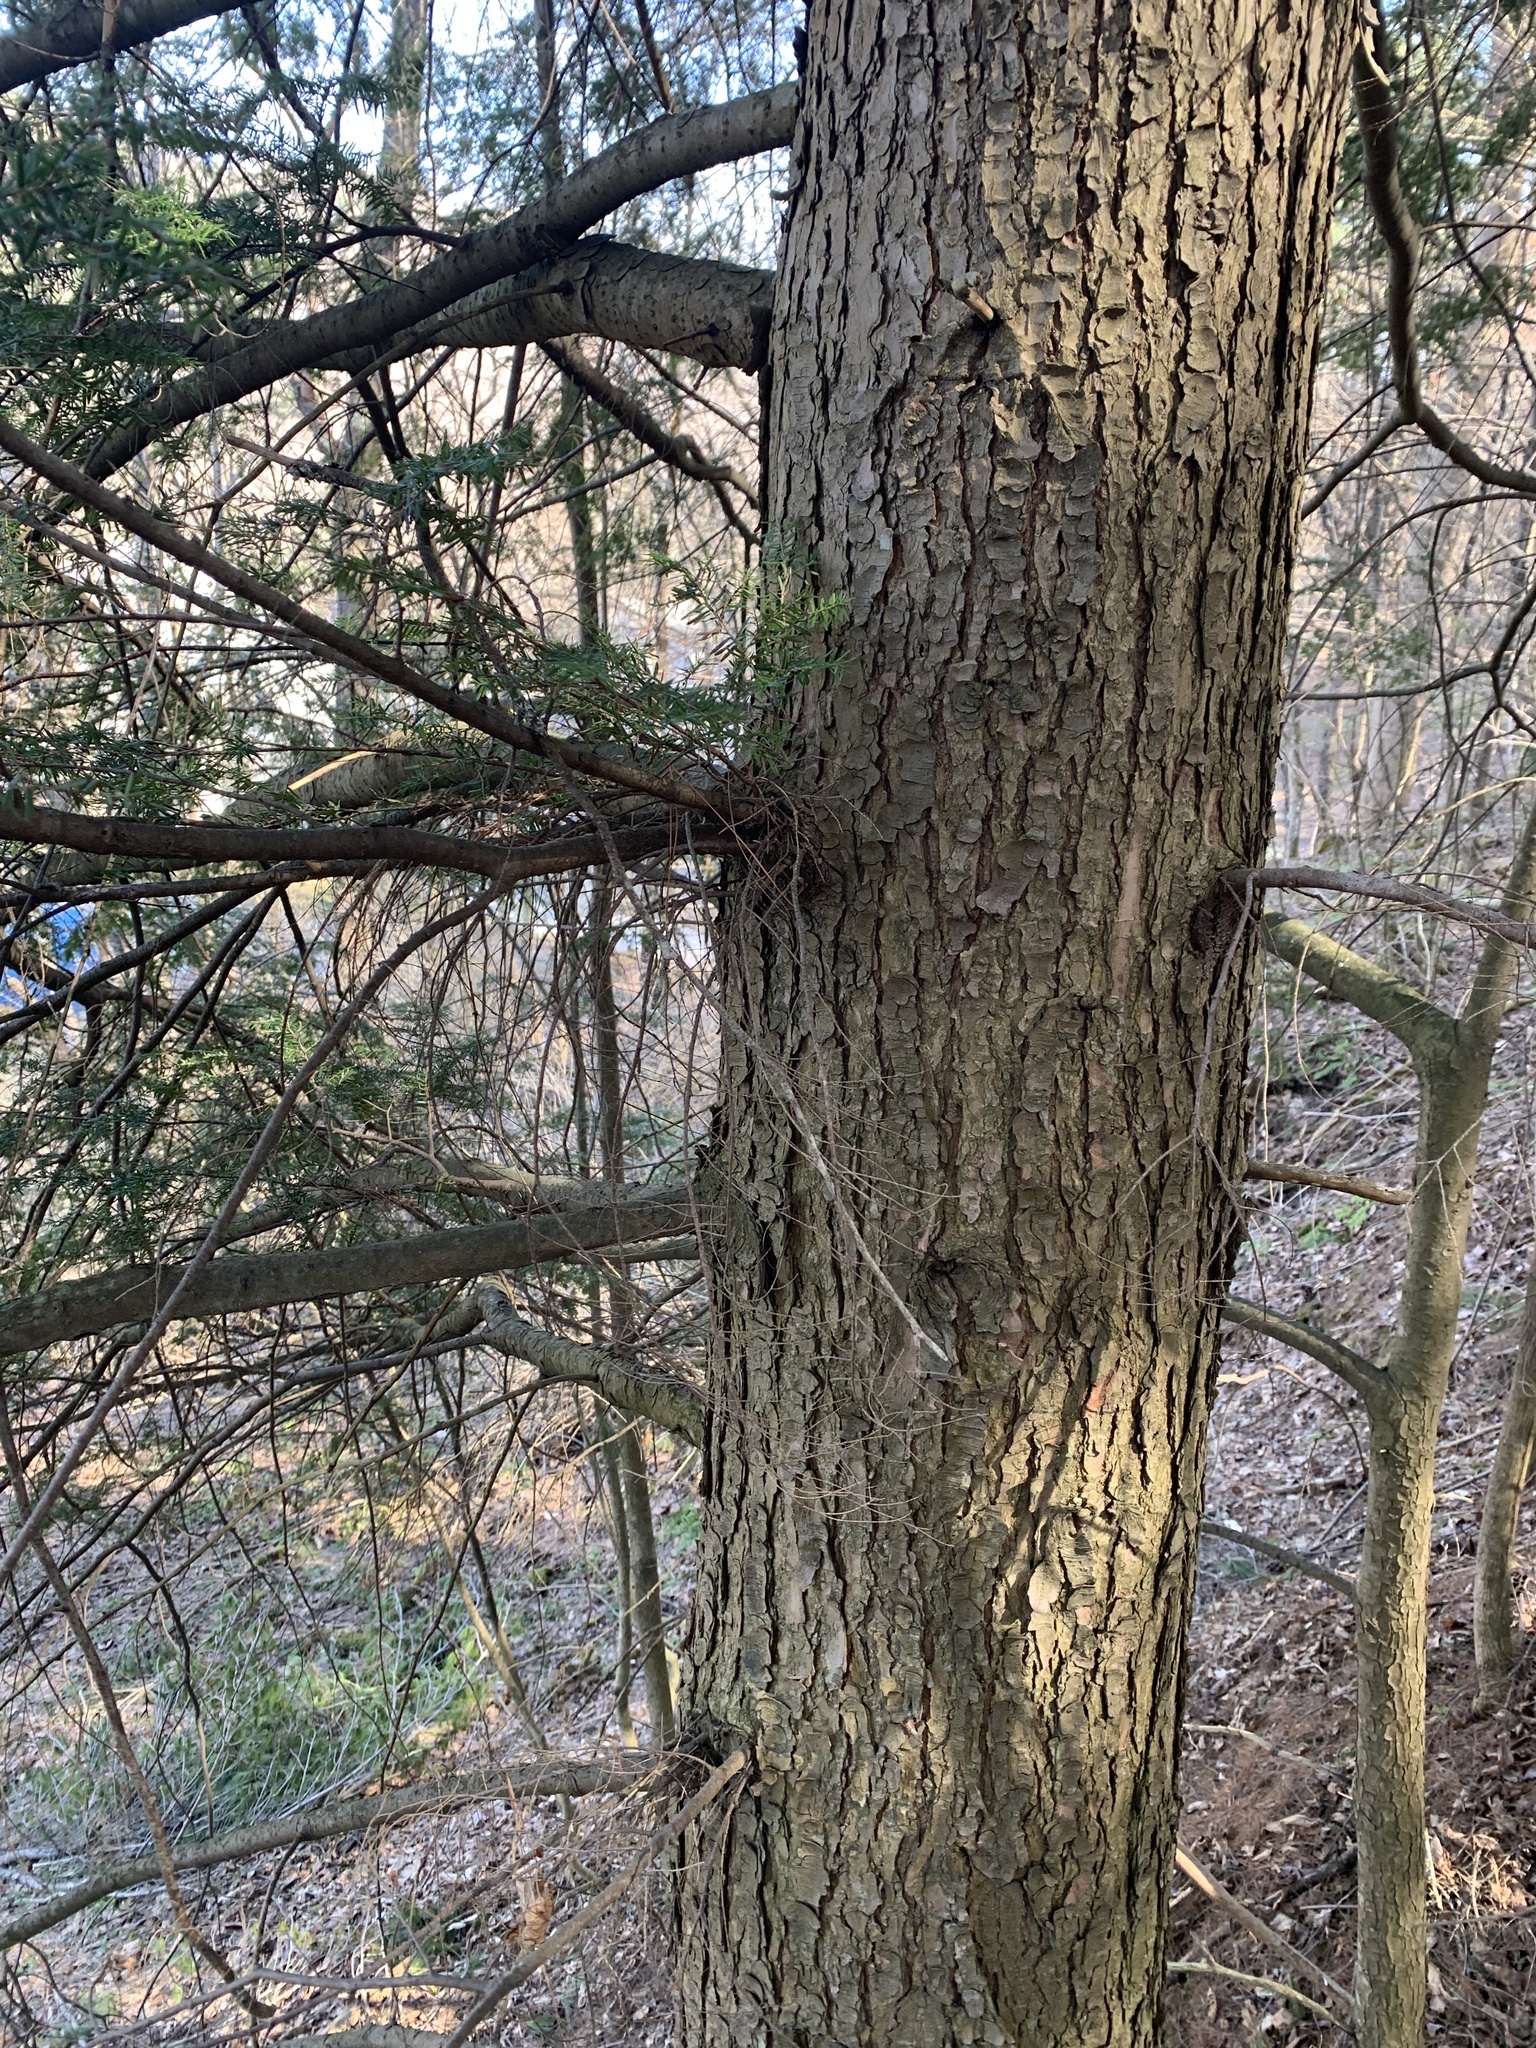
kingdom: Plantae
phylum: Tracheophyta
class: Pinopsida
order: Pinales
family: Pinaceae
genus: Tsuga
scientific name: Tsuga canadensis
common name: Eastern hemlock
